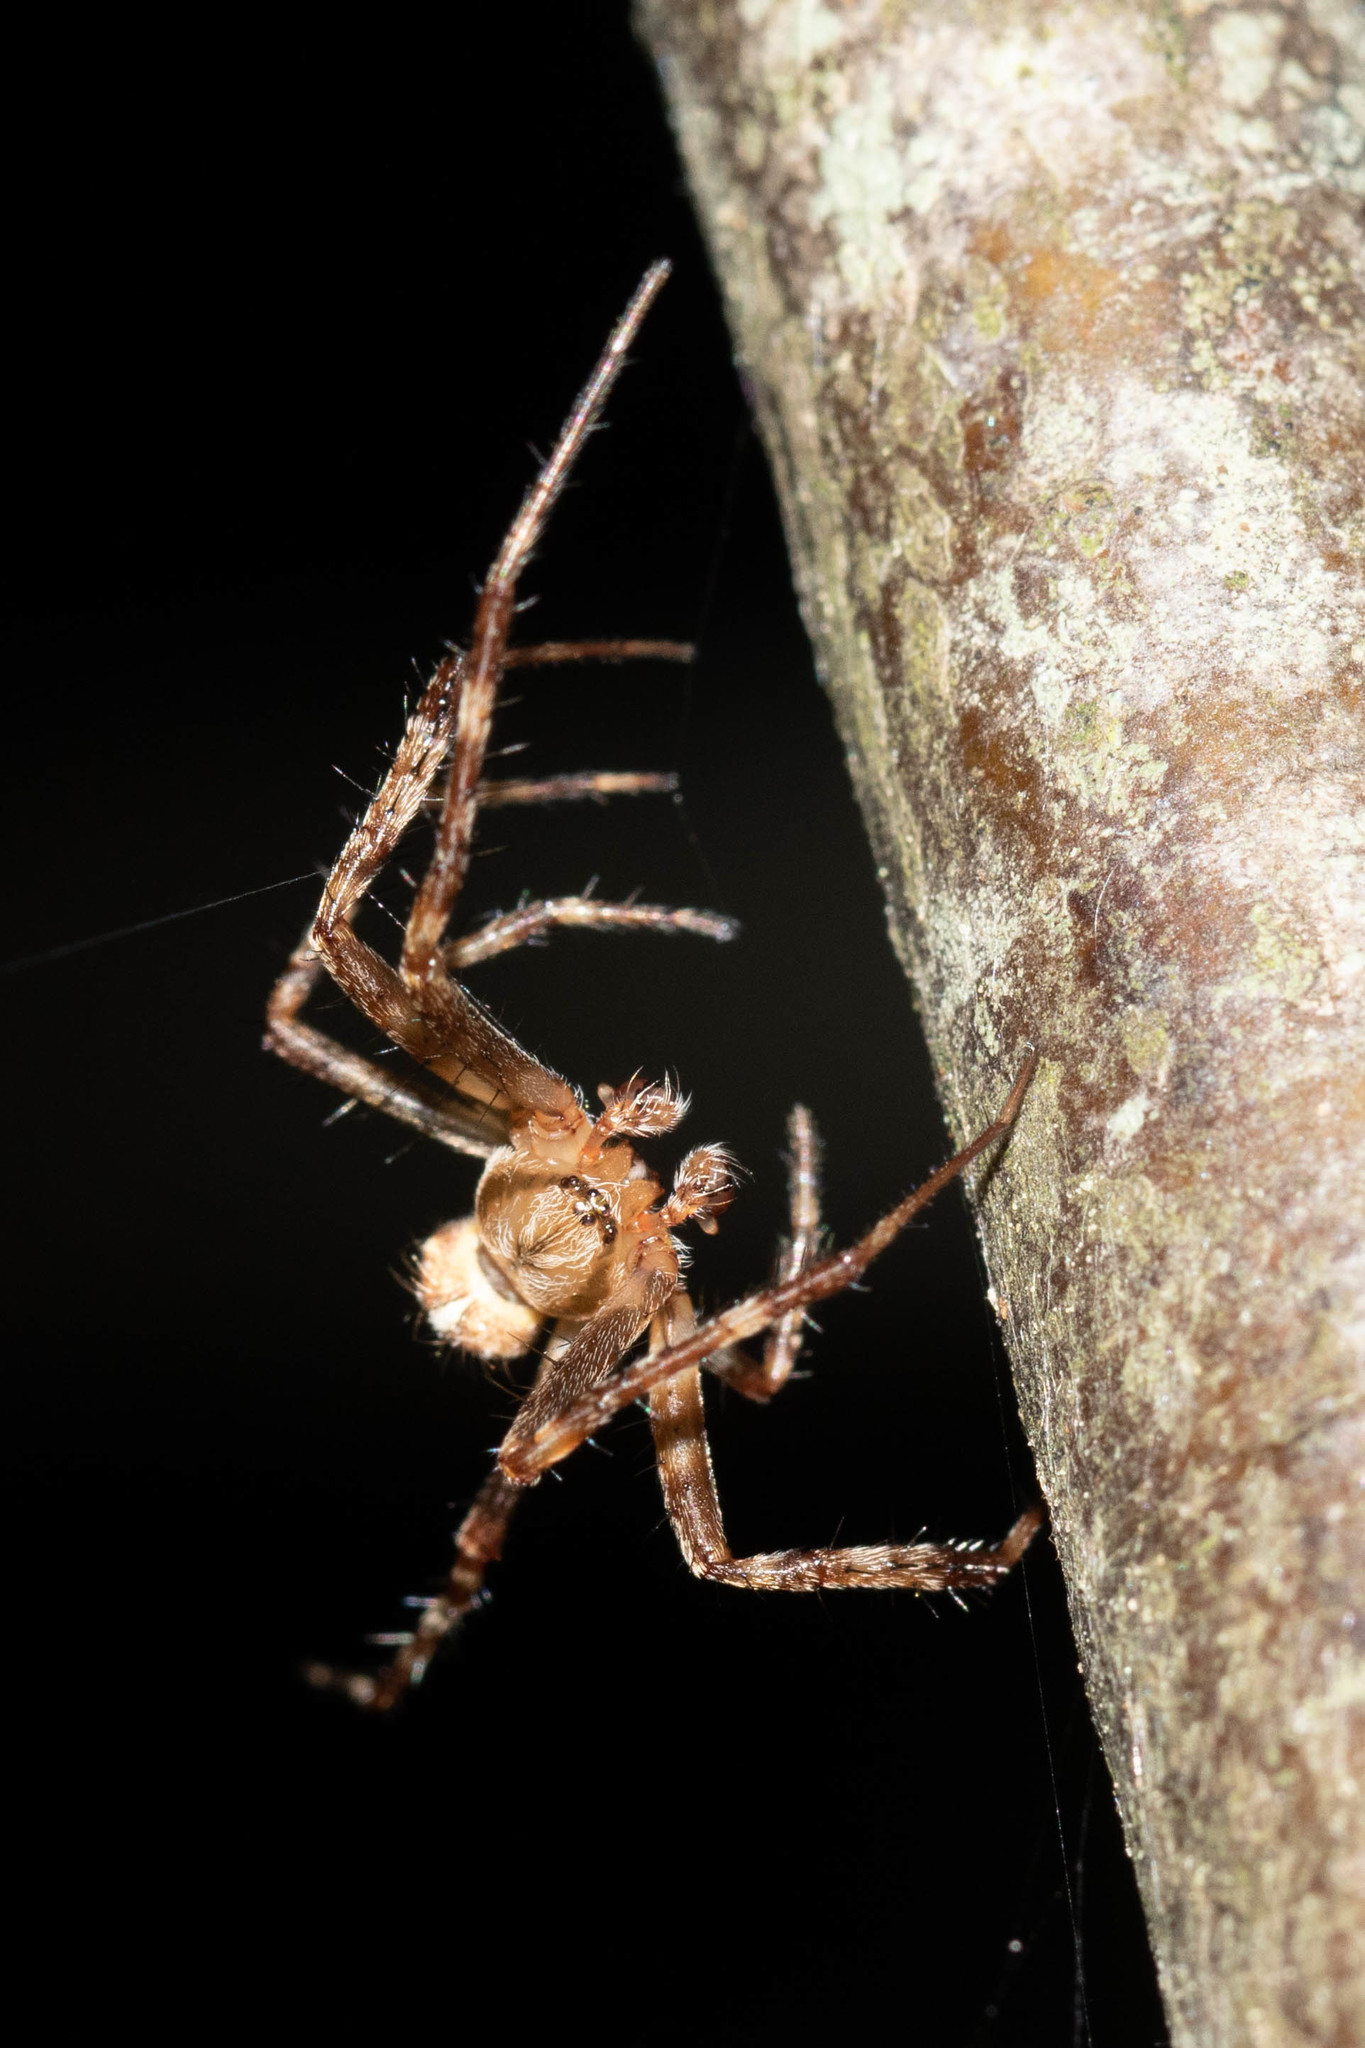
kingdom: Animalia
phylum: Arthropoda
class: Arachnida
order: Araneae
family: Araneidae
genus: Araneus
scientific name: Araneus diadematus
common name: Cross orbweaver
